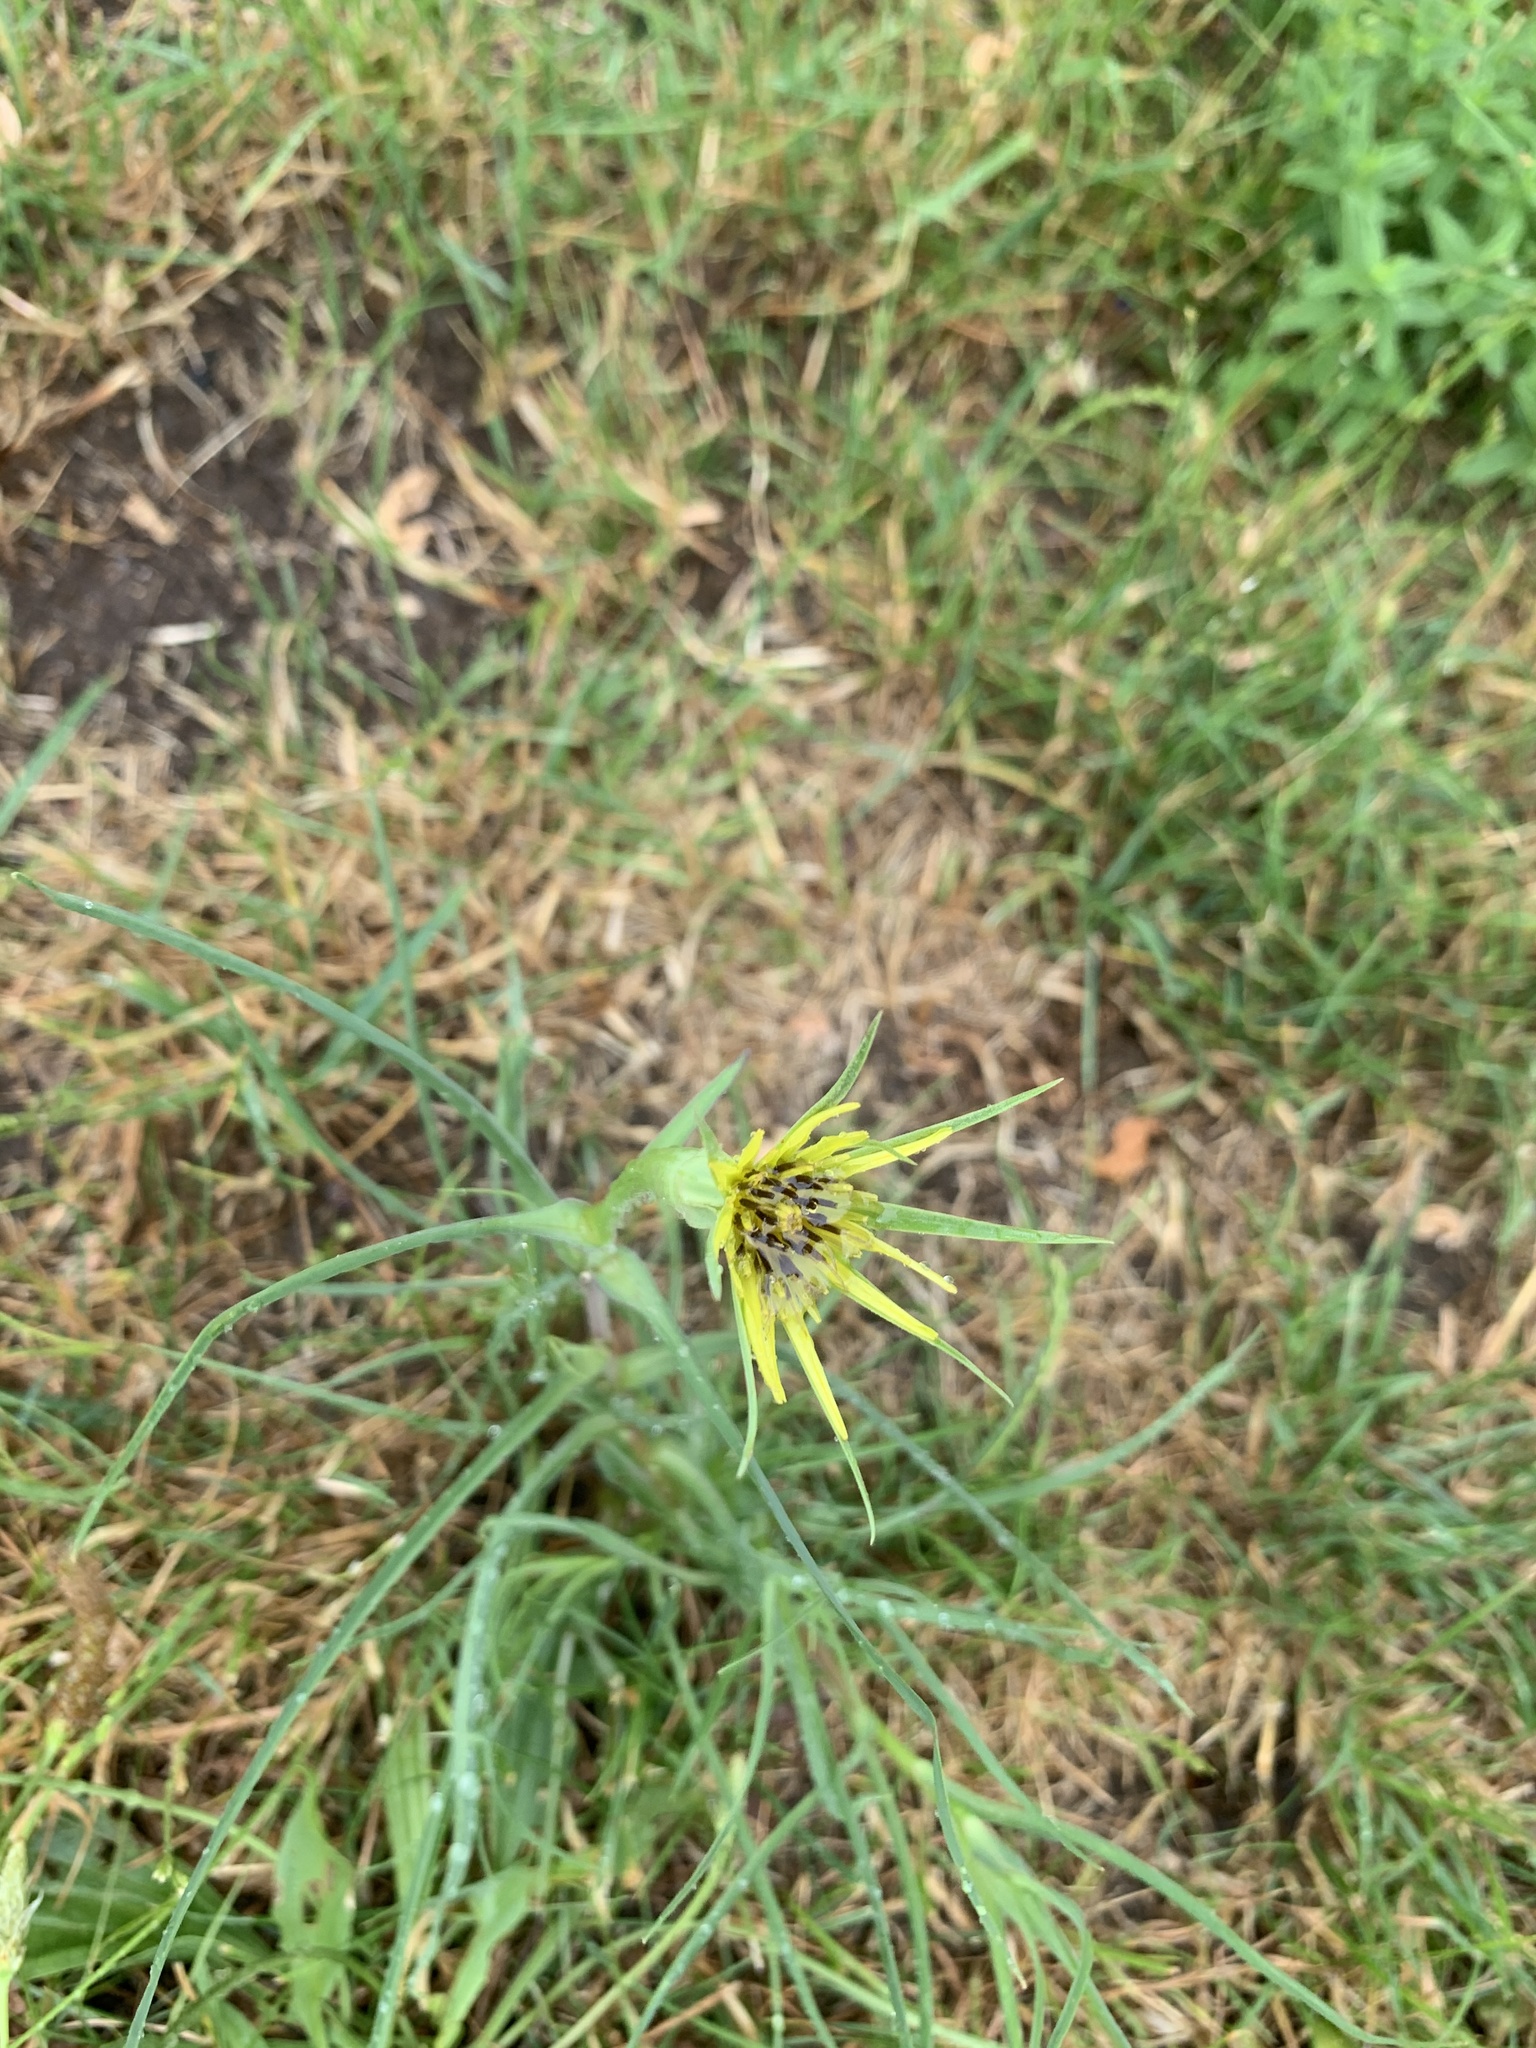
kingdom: Plantae
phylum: Tracheophyta
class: Magnoliopsida
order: Asterales
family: Asteraceae
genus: Tragopogon
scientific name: Tragopogon dubius
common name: Yellow salsify
